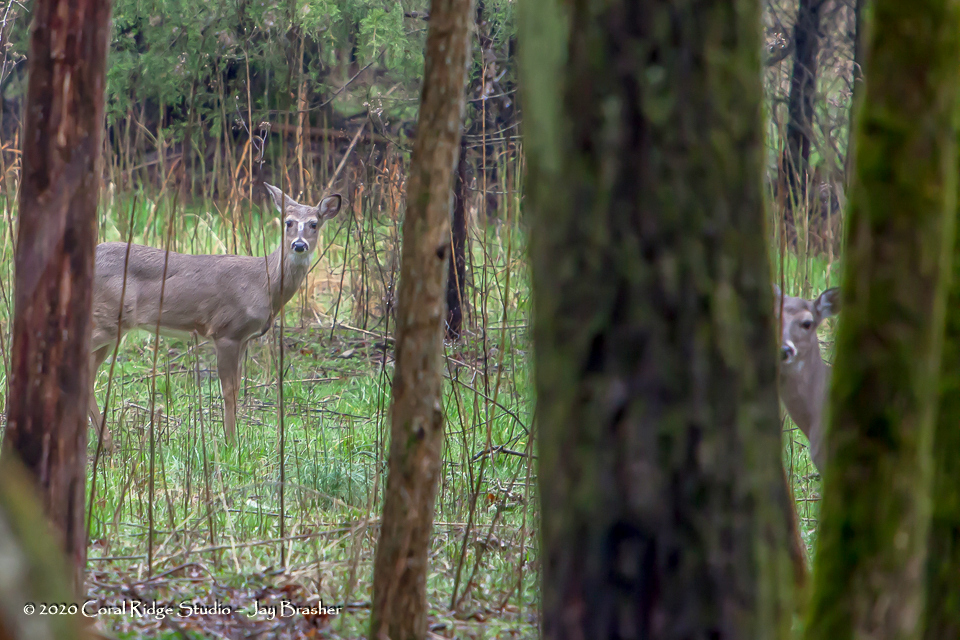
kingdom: Animalia
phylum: Chordata
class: Mammalia
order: Artiodactyla
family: Cervidae
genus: Odocoileus
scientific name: Odocoileus virginianus
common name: White-tailed deer
